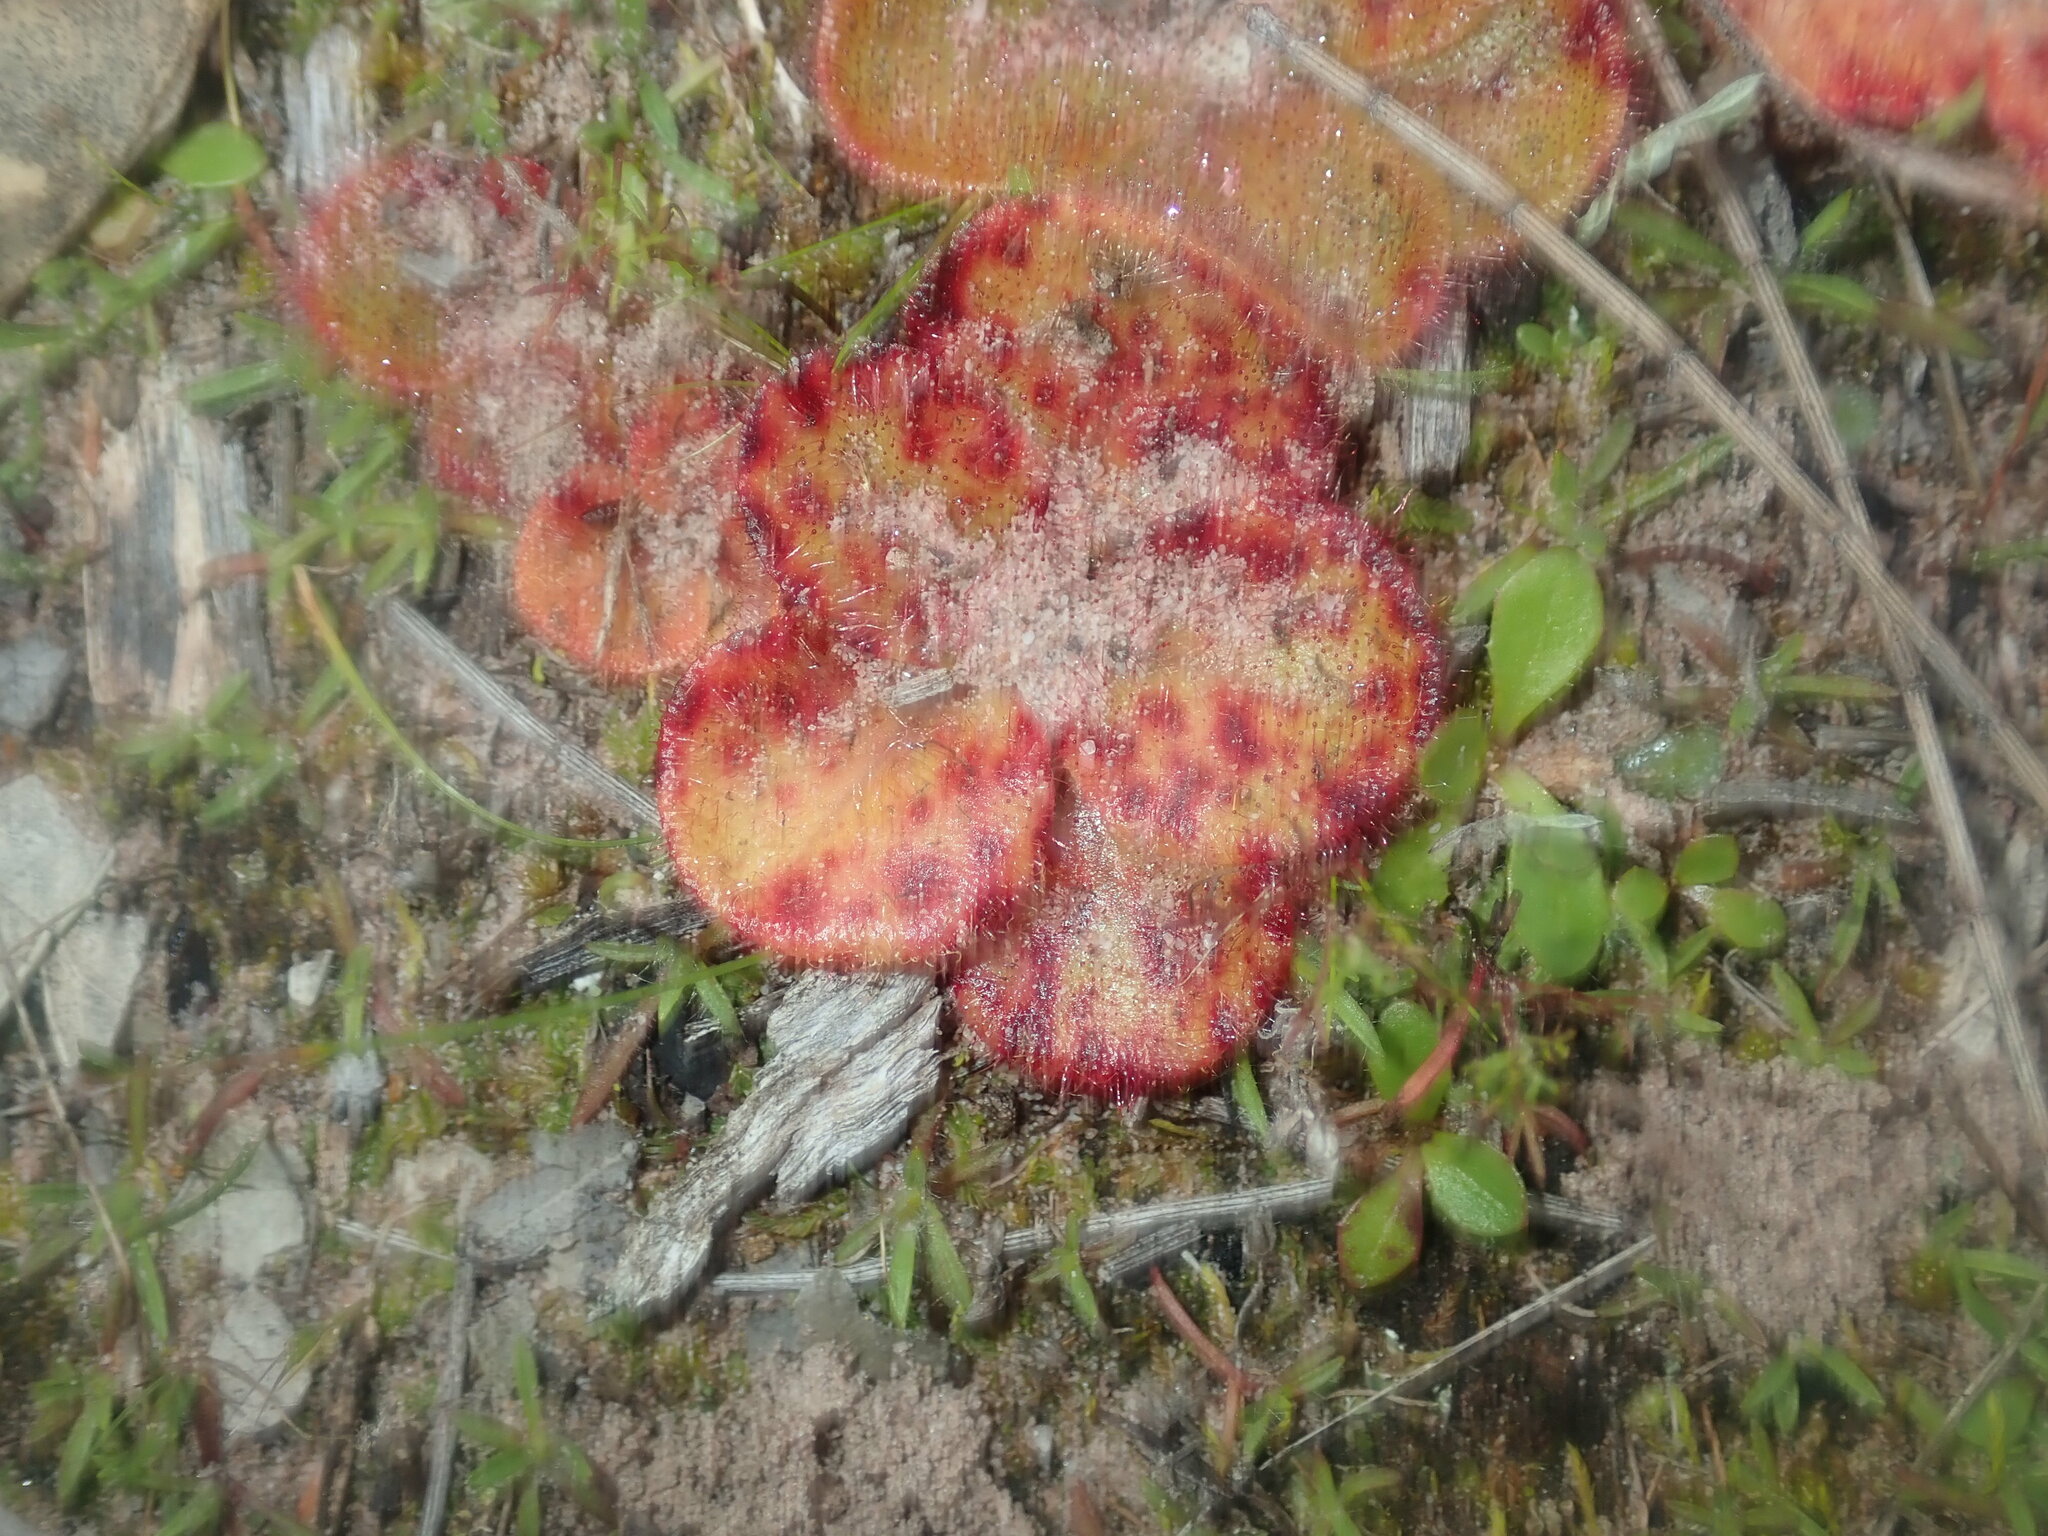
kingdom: Plantae
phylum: Tracheophyta
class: Magnoliopsida
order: Caryophyllales
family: Droseraceae
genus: Drosera
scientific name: Drosera erythrorhiza
